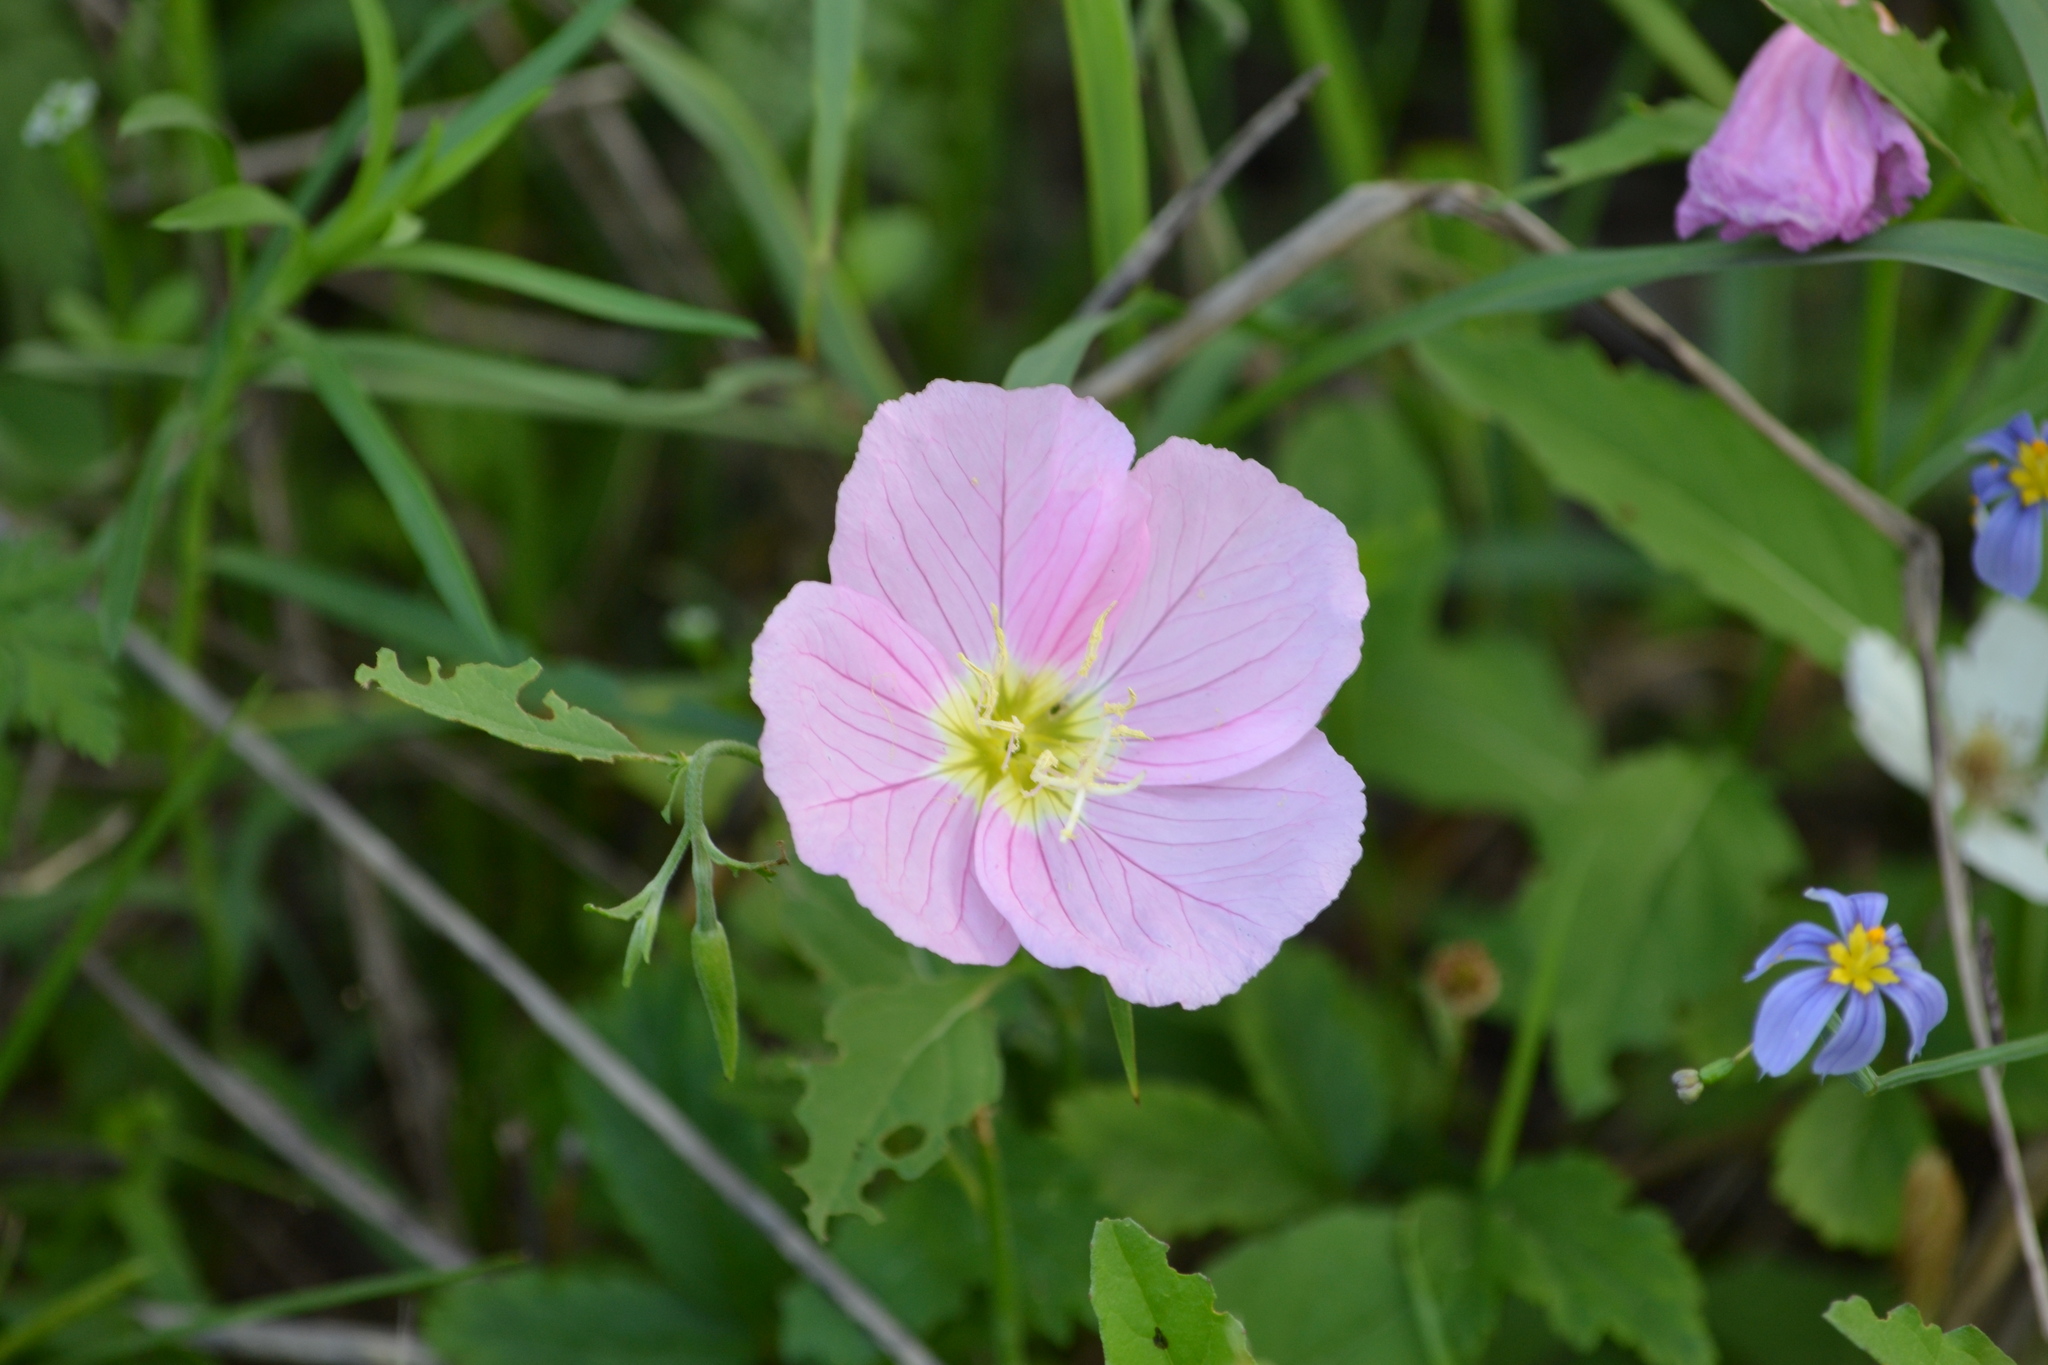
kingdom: Plantae
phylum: Tracheophyta
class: Magnoliopsida
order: Myrtales
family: Onagraceae
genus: Oenothera
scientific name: Oenothera speciosa
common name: White evening-primrose
